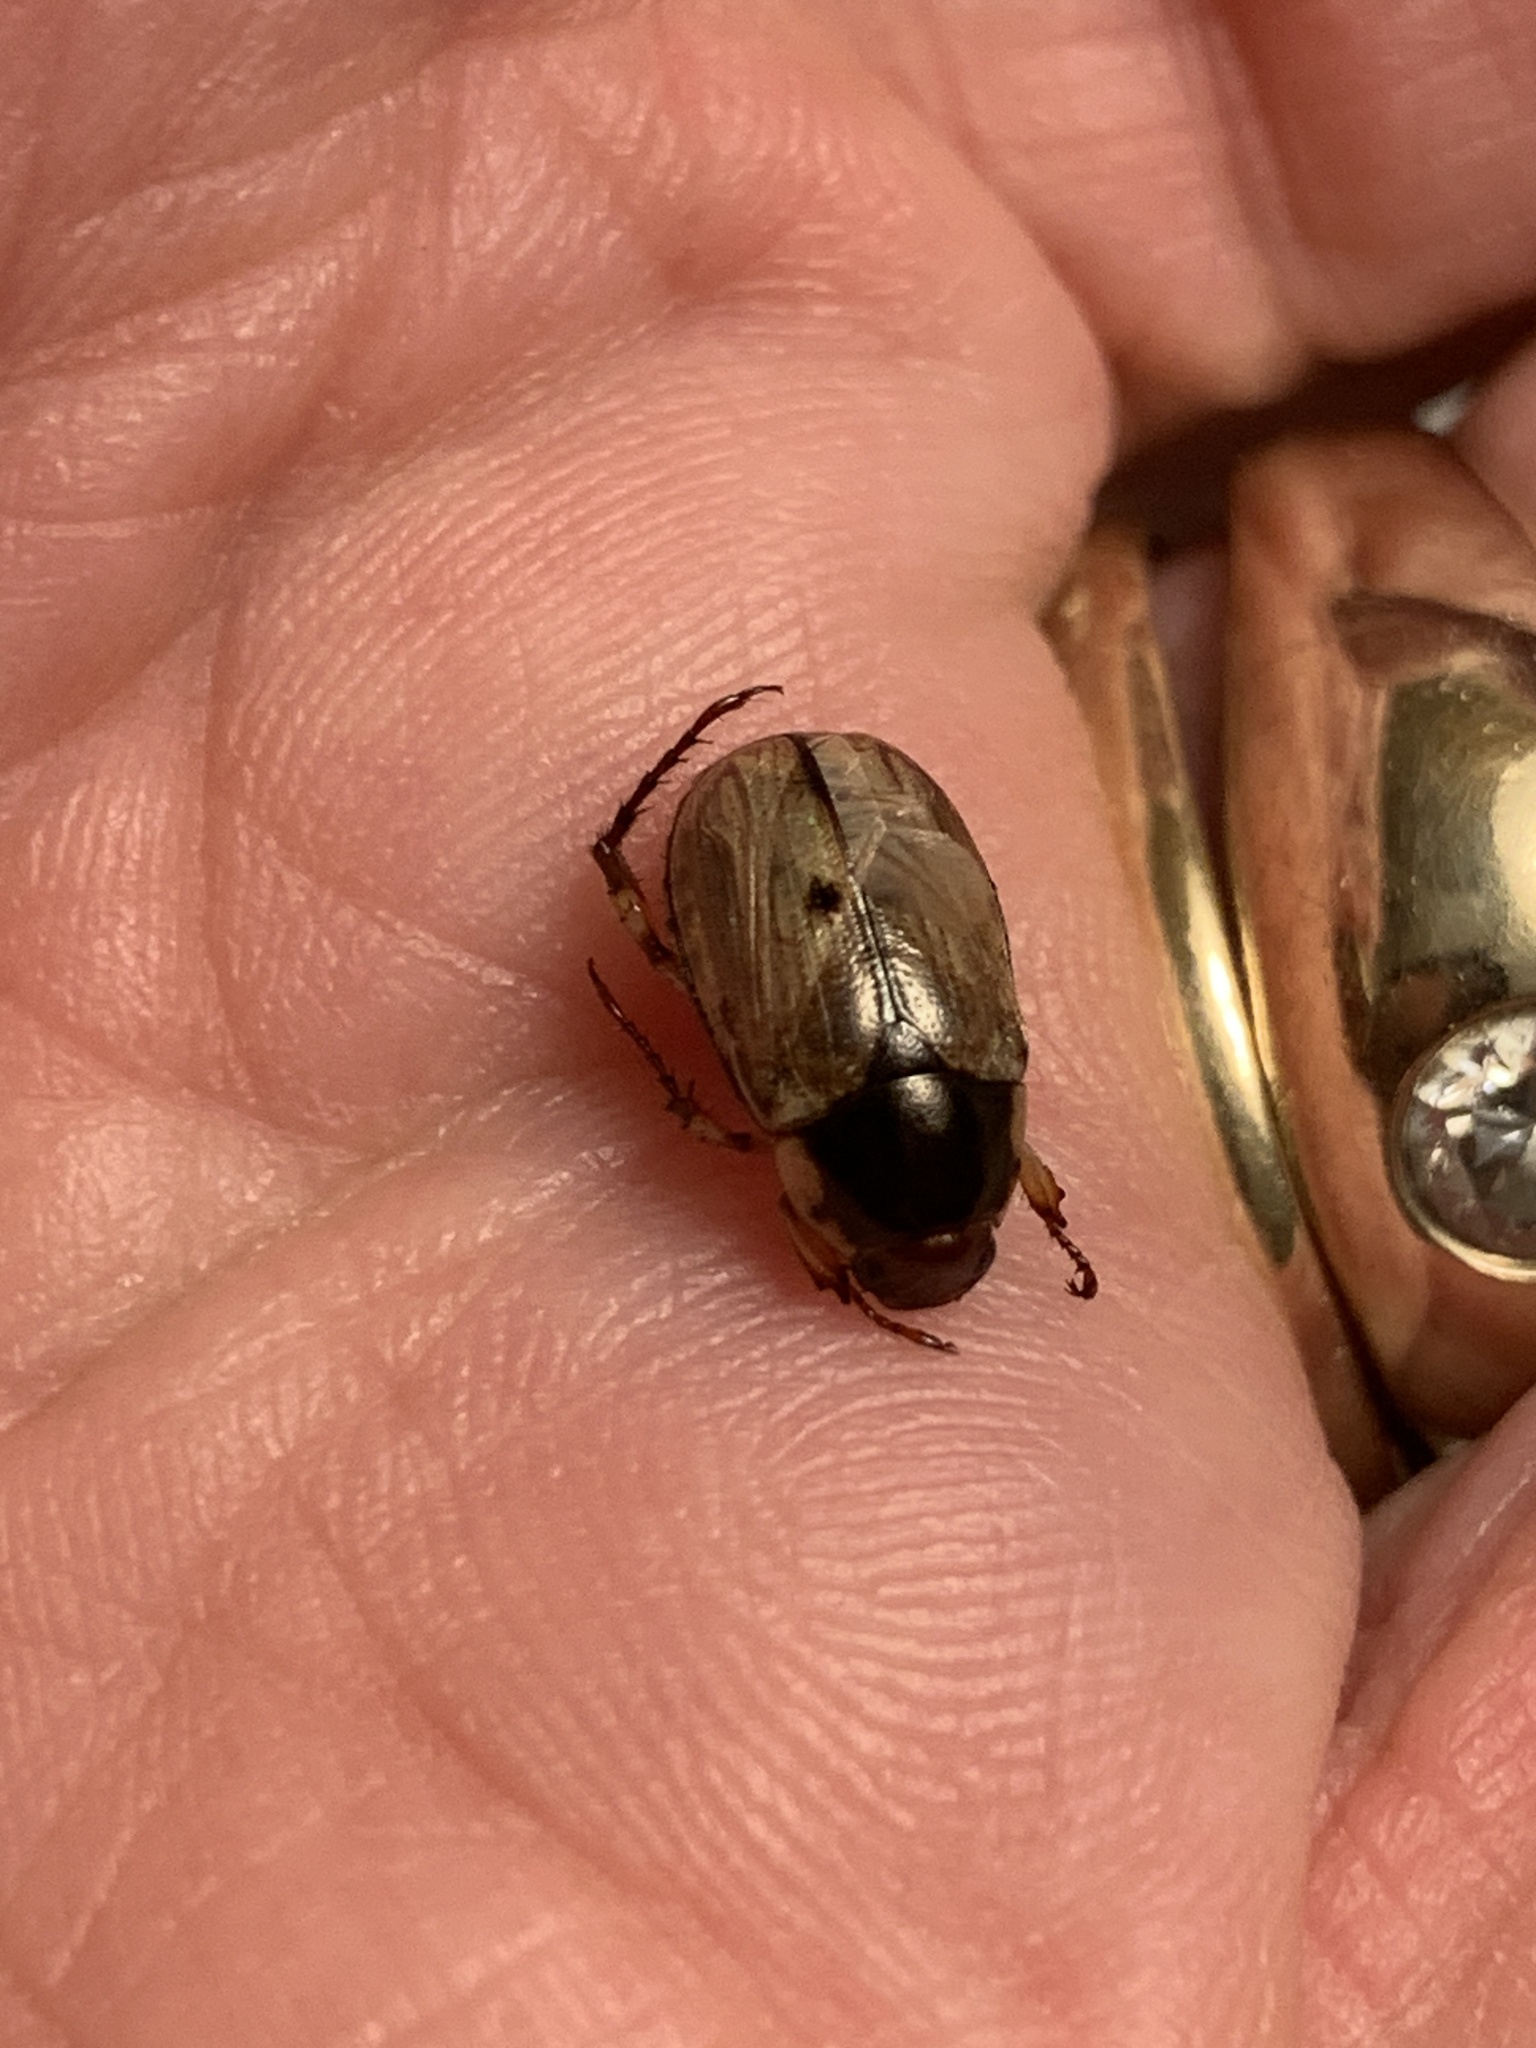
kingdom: Animalia
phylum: Arthropoda
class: Insecta
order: Coleoptera
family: Scarabaeidae
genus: Paranomala
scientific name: Paranomala undulata
